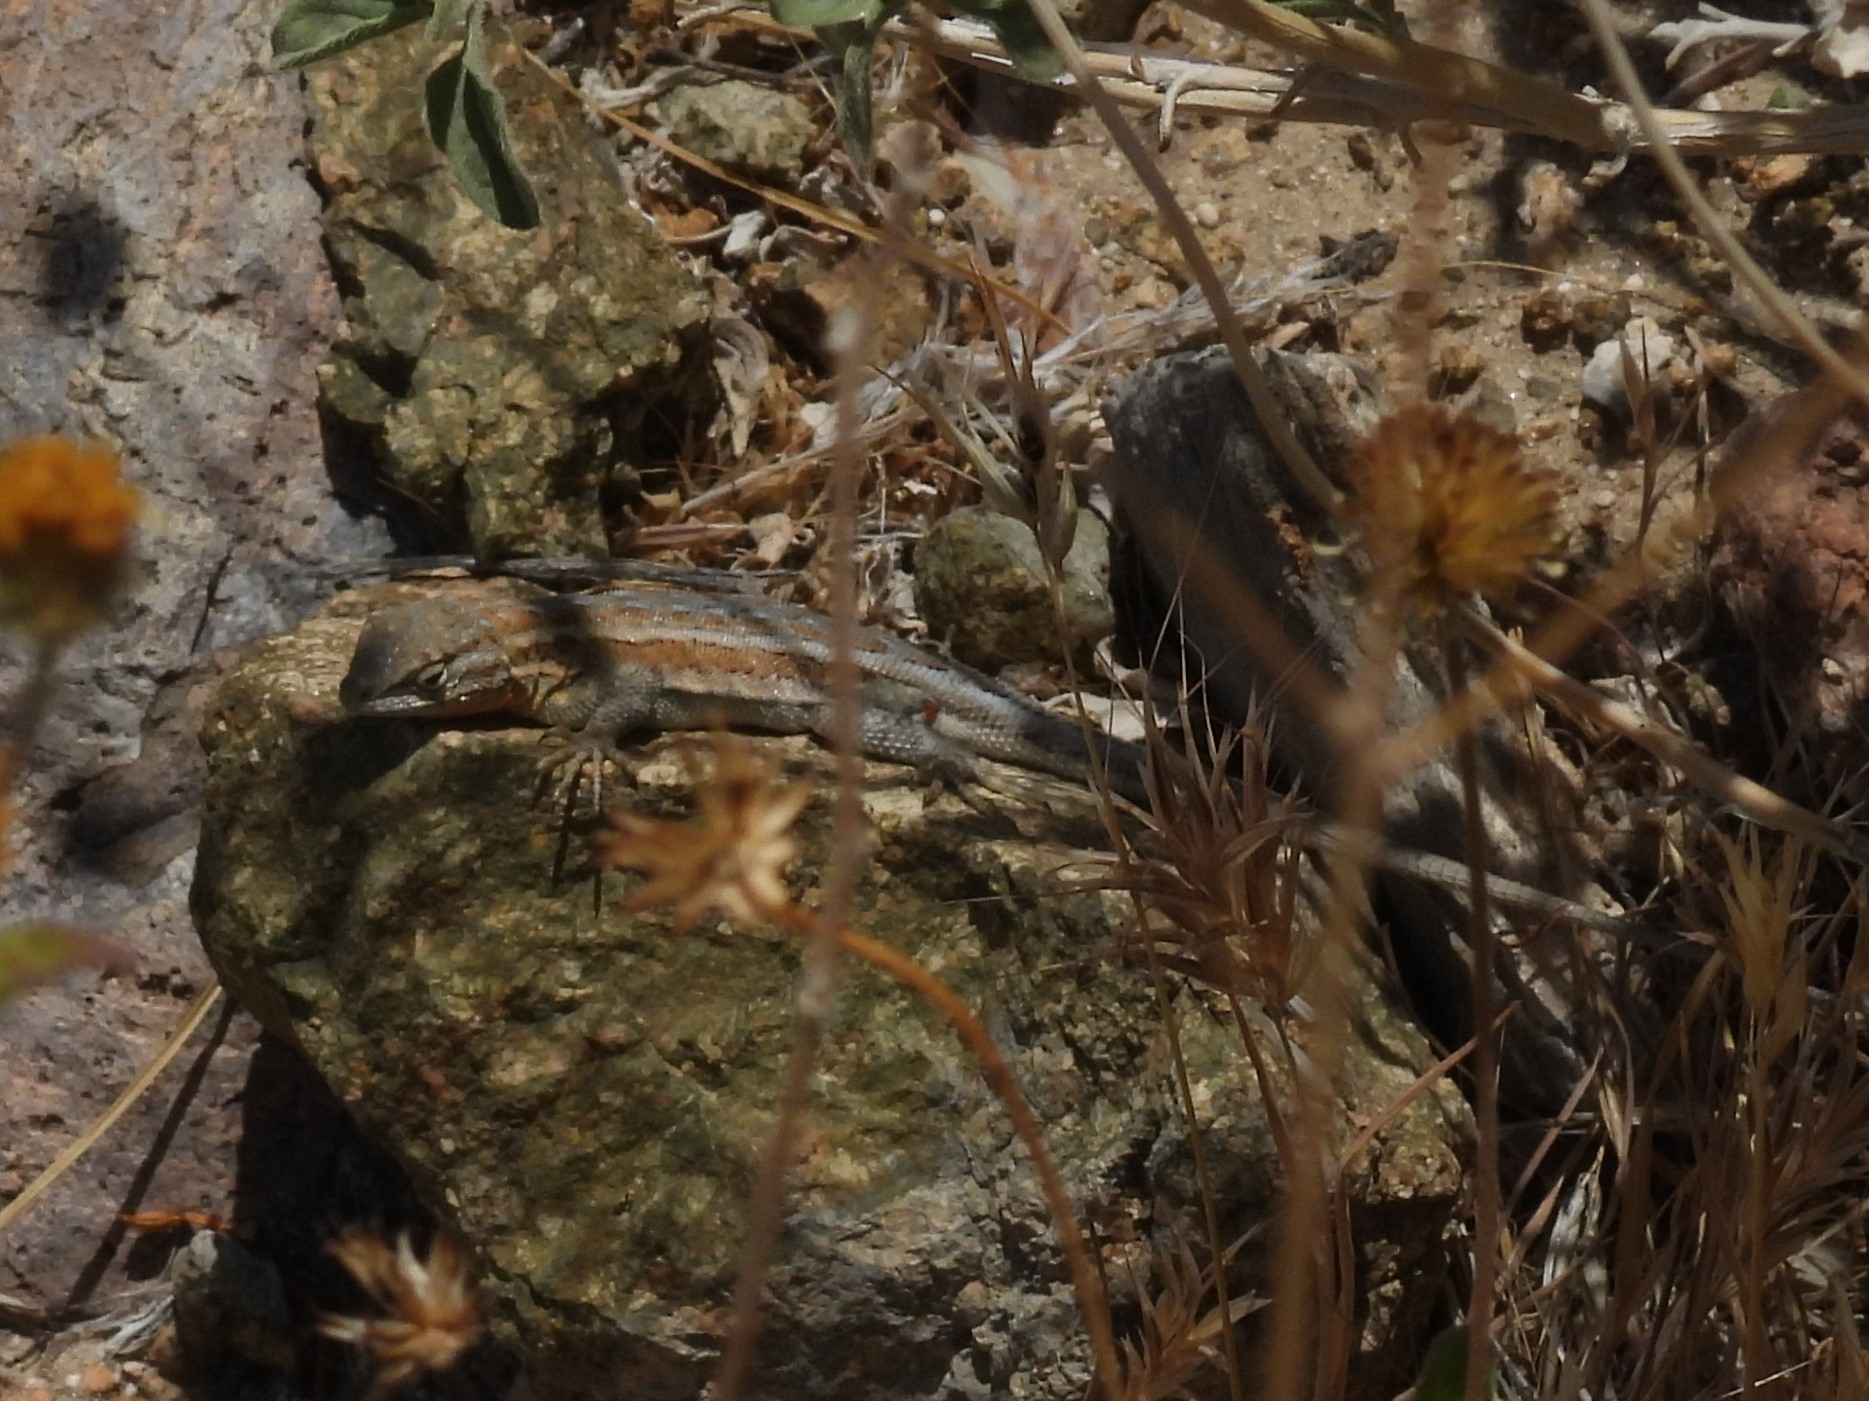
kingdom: Animalia
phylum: Chordata
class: Squamata
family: Phrynosomatidae
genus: Uta
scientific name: Uta stansburiana
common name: Side-blotched lizard
